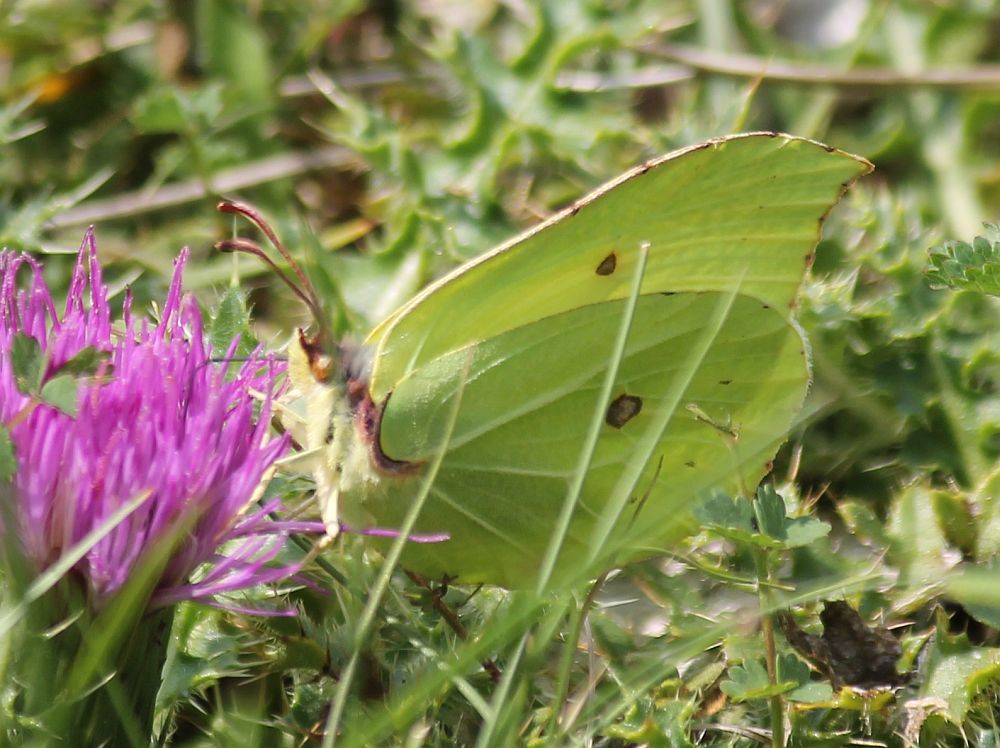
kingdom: Animalia
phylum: Arthropoda
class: Insecta
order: Lepidoptera
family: Pieridae
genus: Gonepteryx
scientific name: Gonepteryx rhamni
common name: Brimstone
